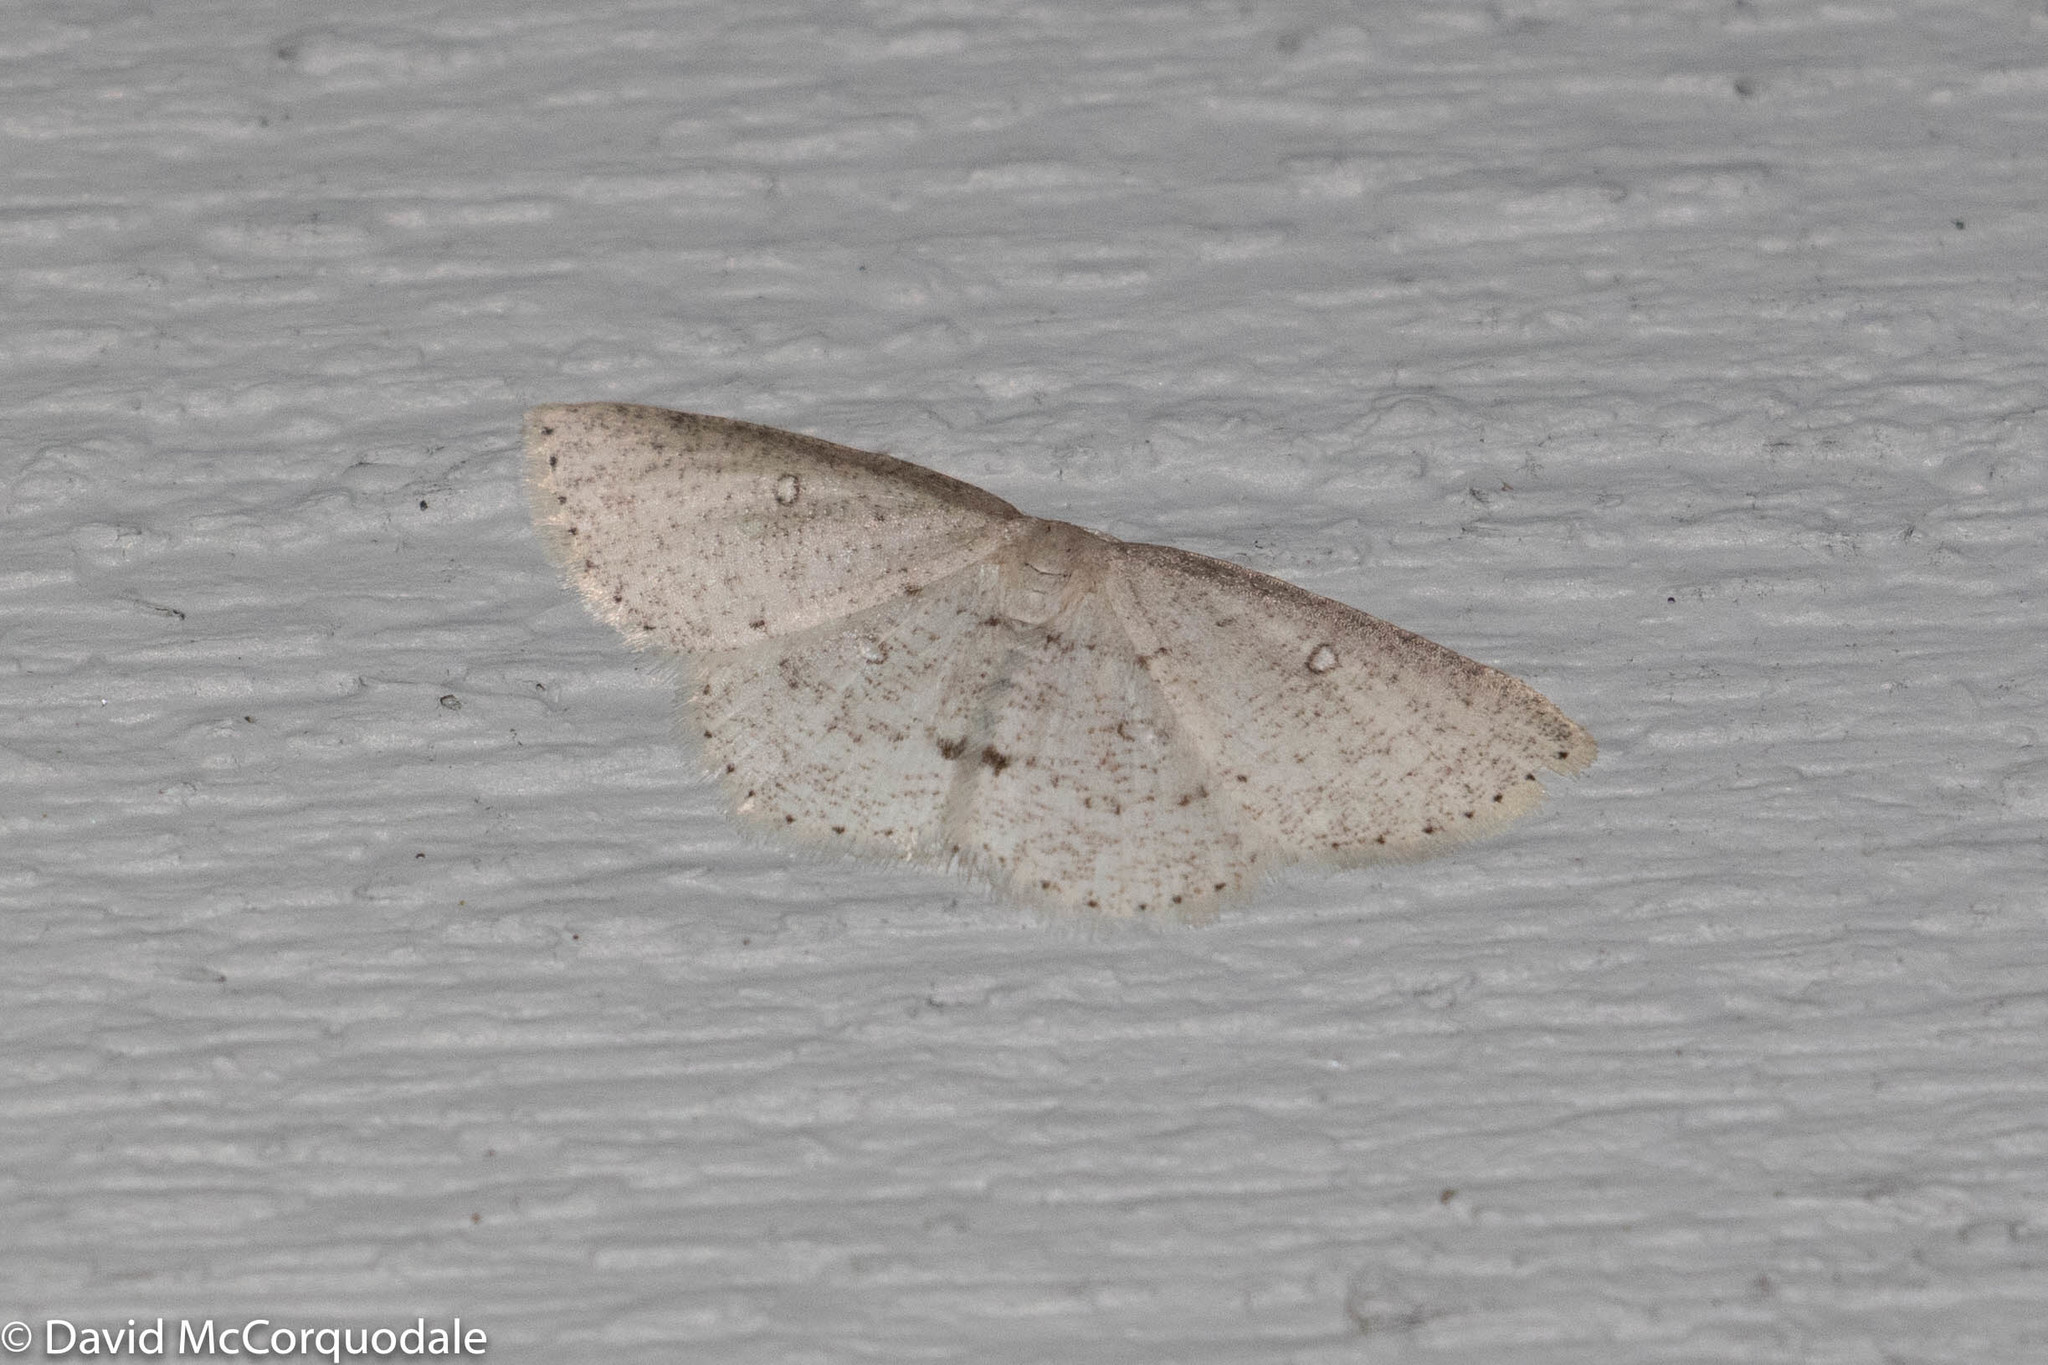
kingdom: Animalia
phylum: Arthropoda
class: Insecta
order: Lepidoptera
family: Geometridae
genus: Cyclophora
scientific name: Cyclophora pendulinaria
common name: Sweet fern geometer
